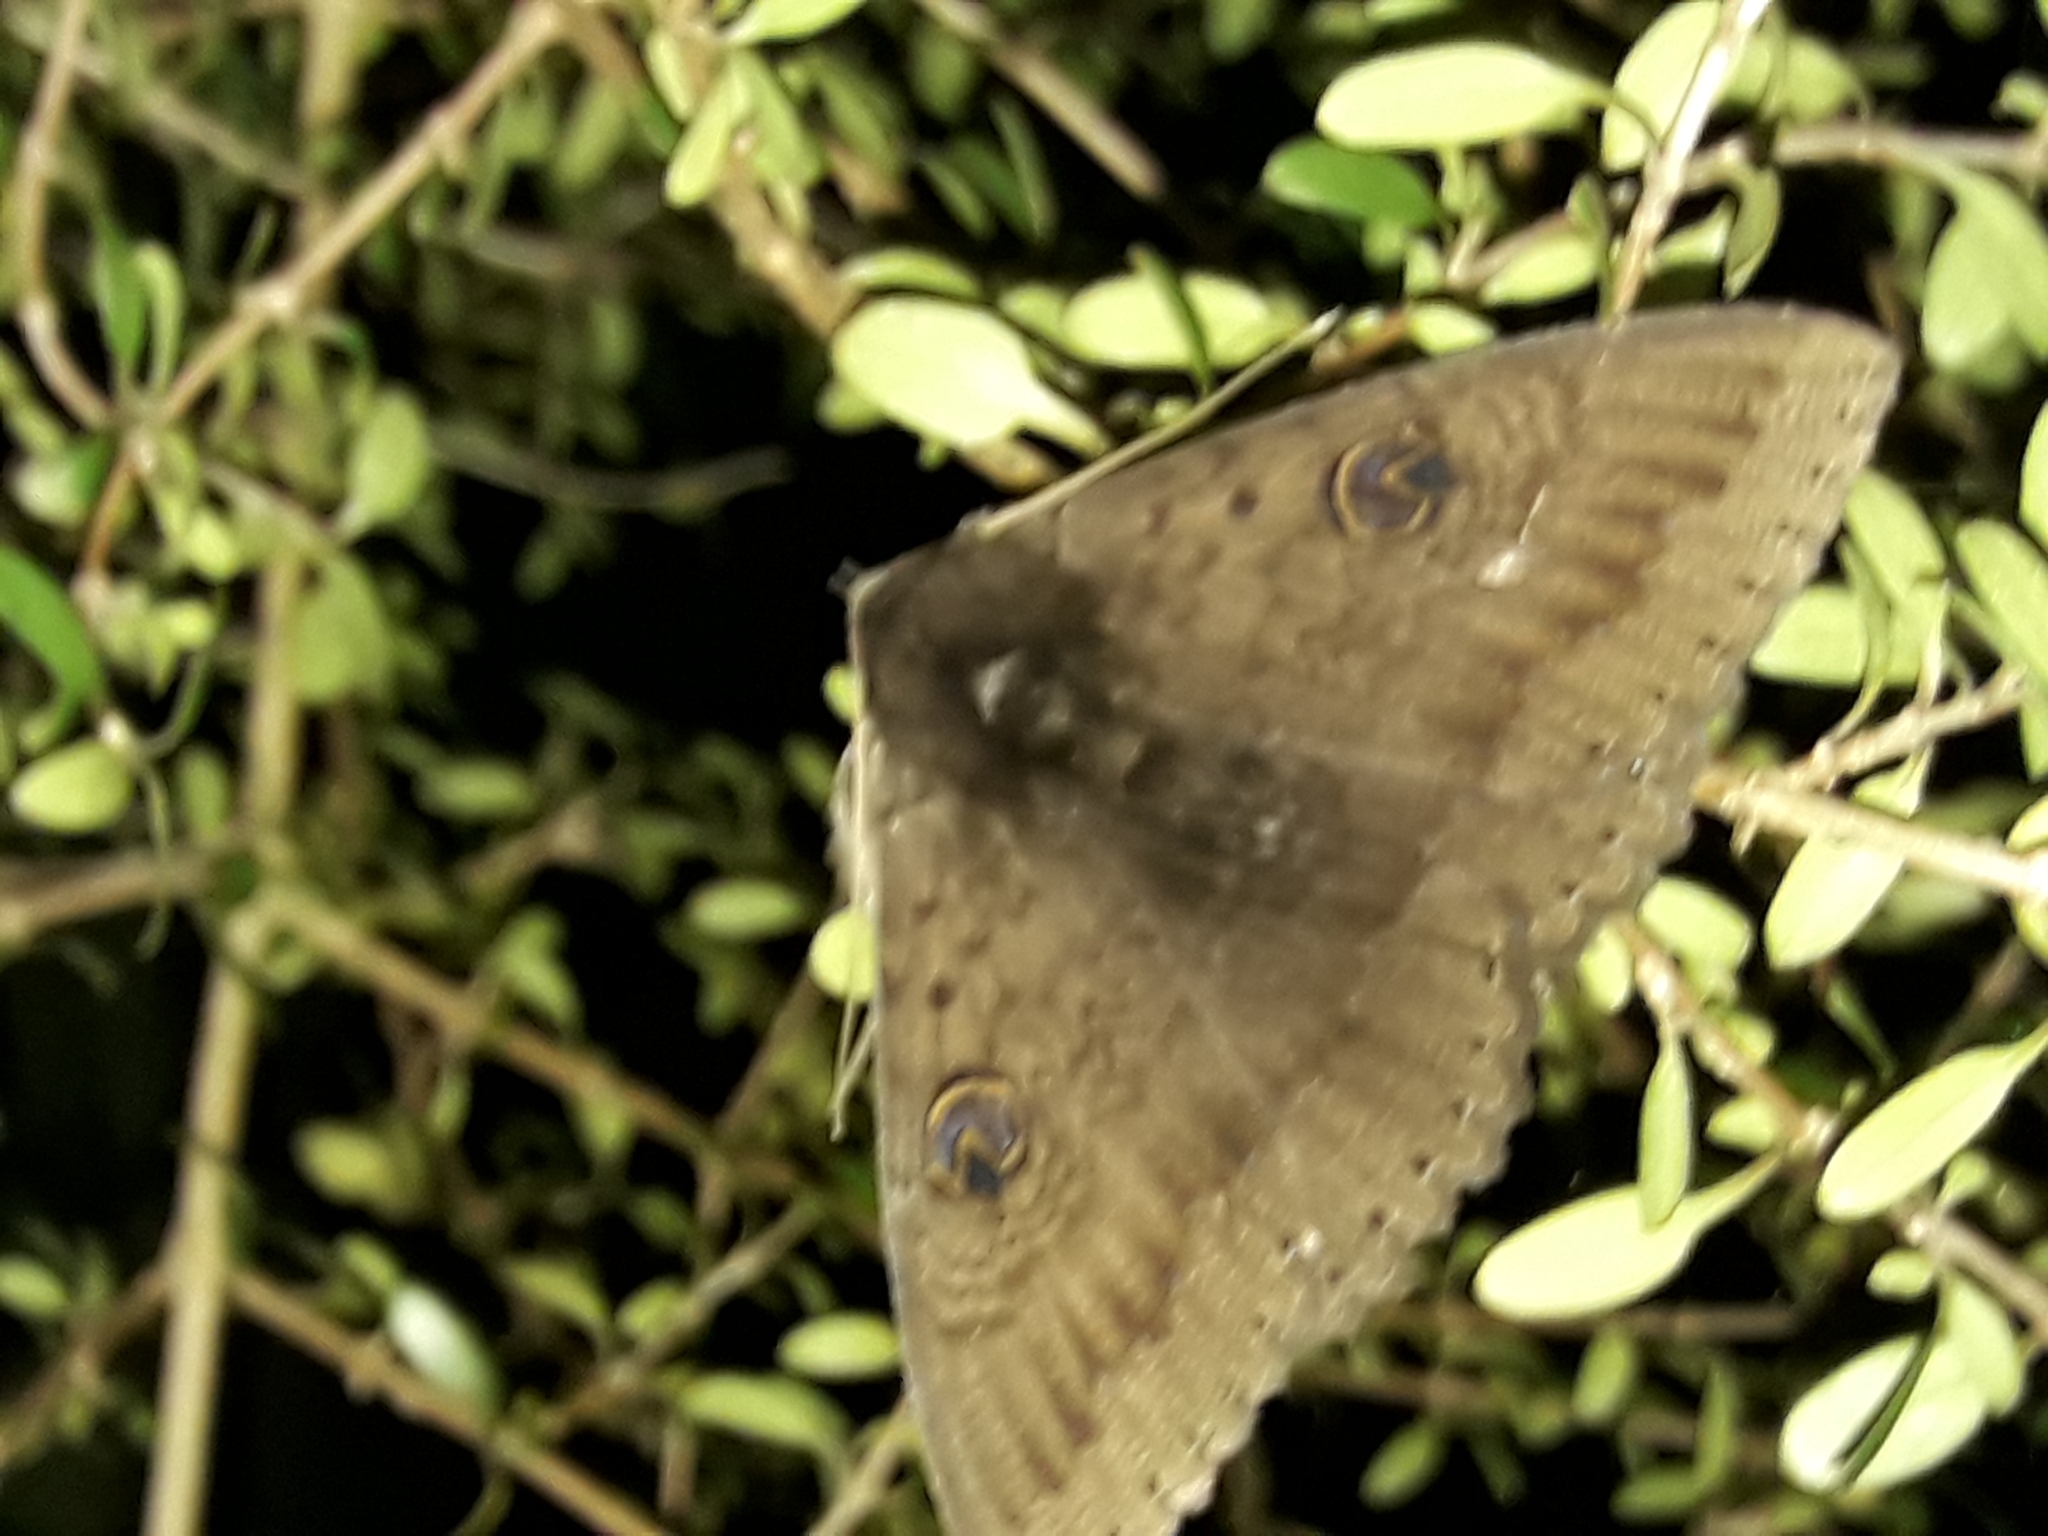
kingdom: Animalia
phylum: Arthropoda
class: Insecta
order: Lepidoptera
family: Erebidae
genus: Dasypodia
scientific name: Dasypodia cymatodes
